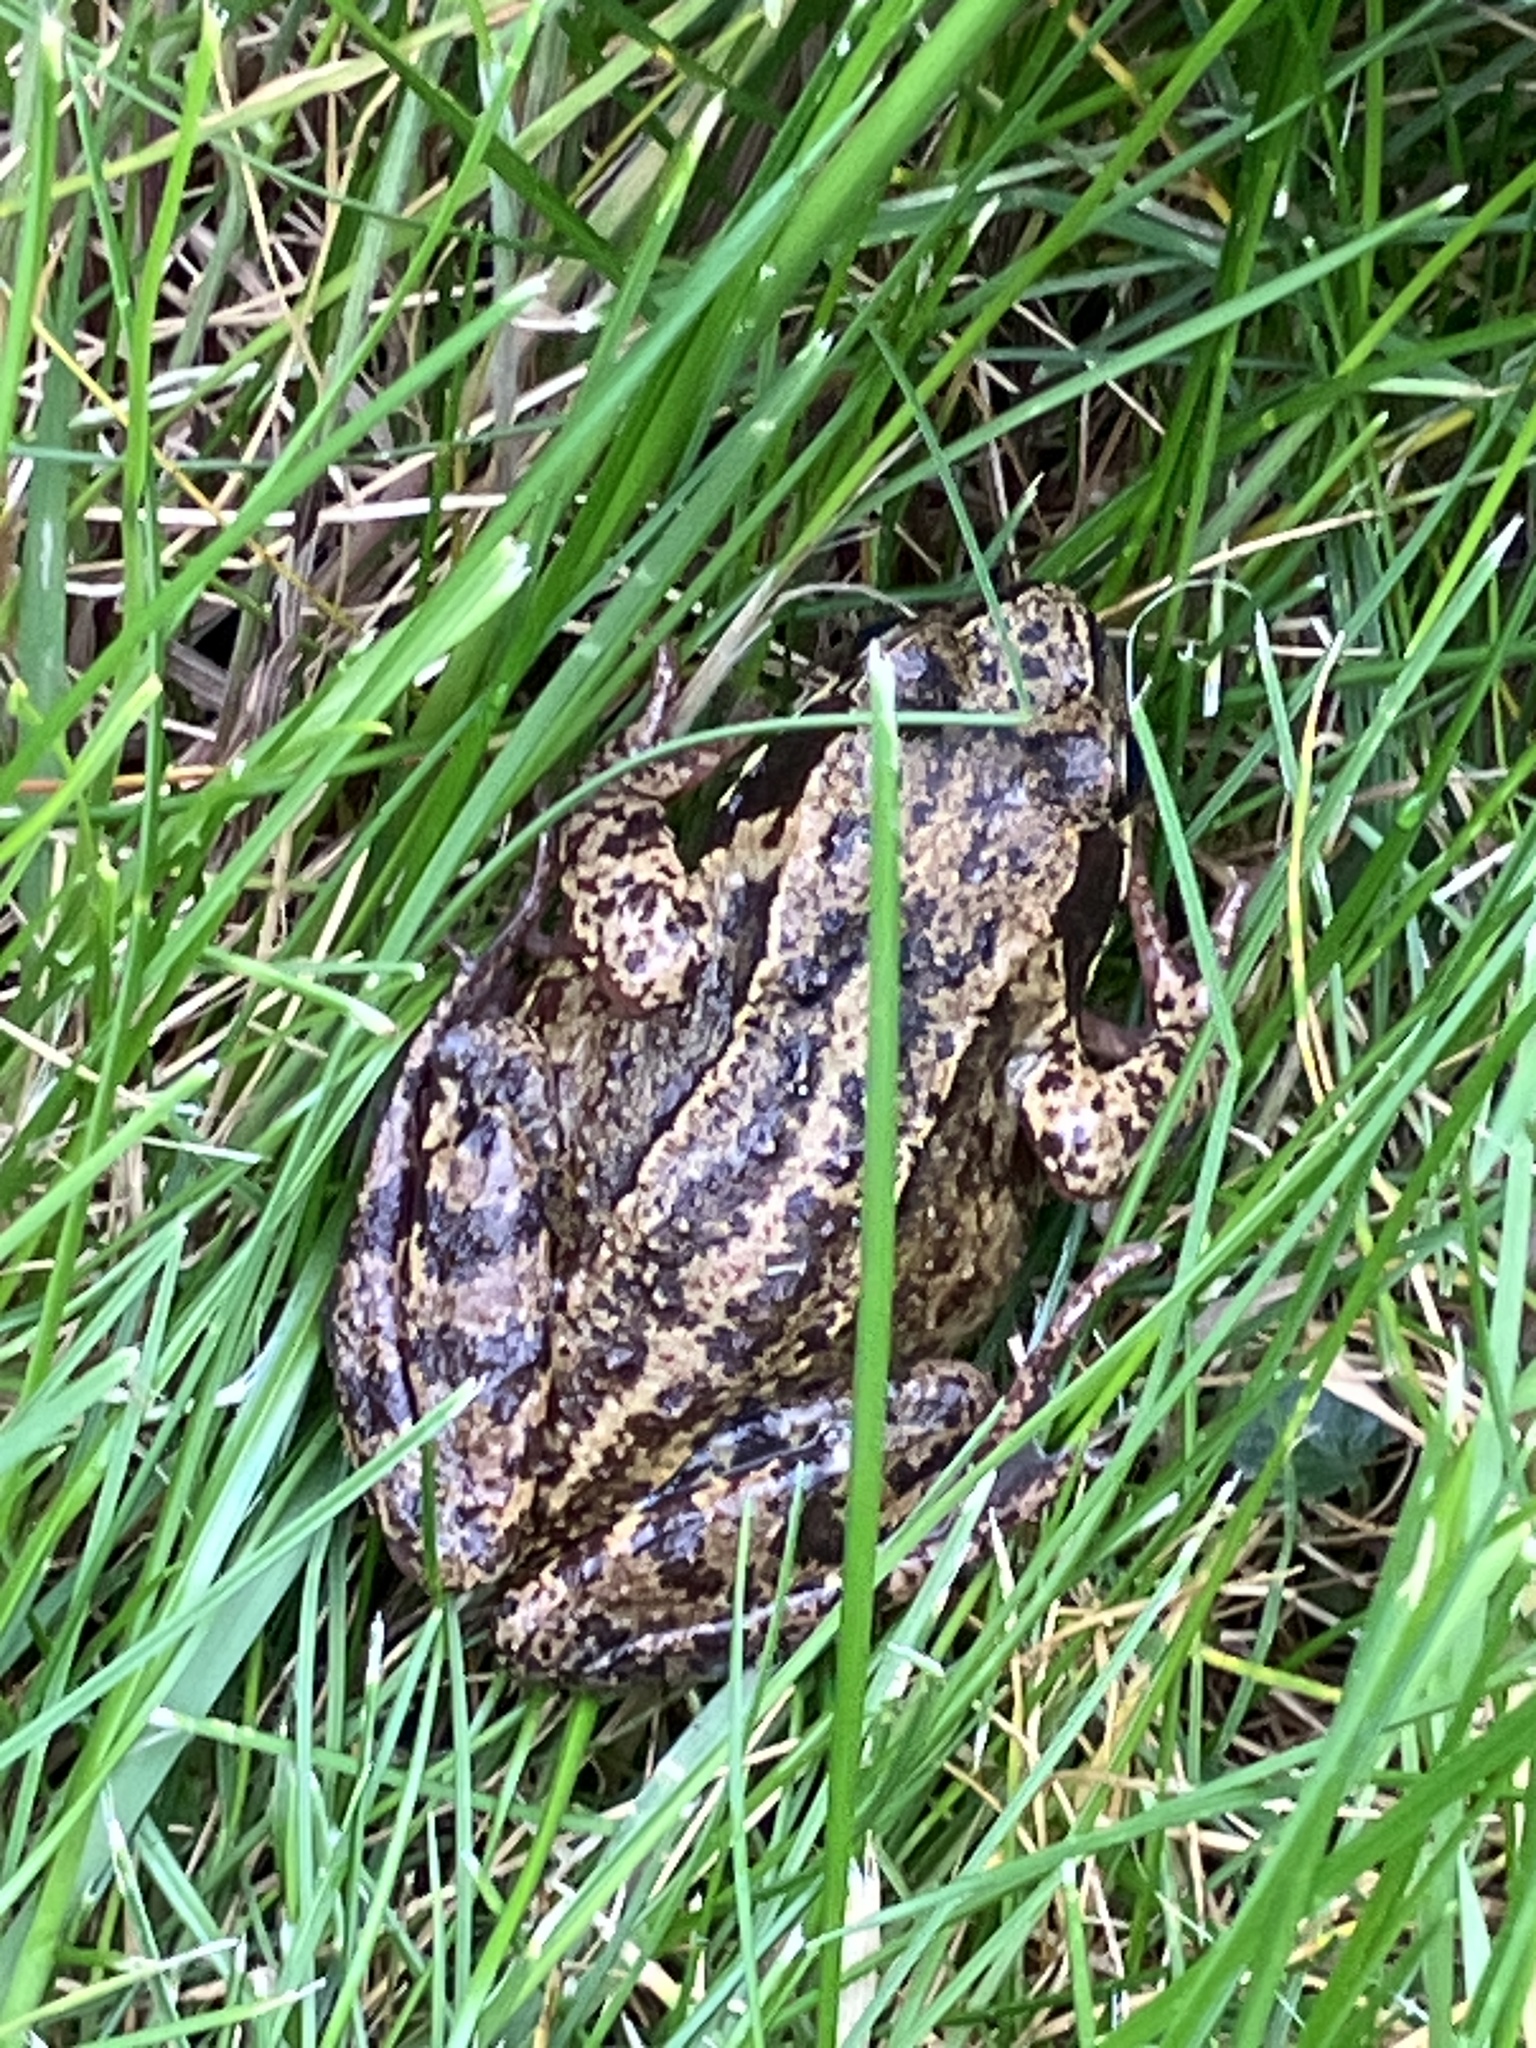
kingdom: Animalia
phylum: Chordata
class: Amphibia
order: Anura
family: Ranidae
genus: Rana
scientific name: Rana temporaria
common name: Common frog
